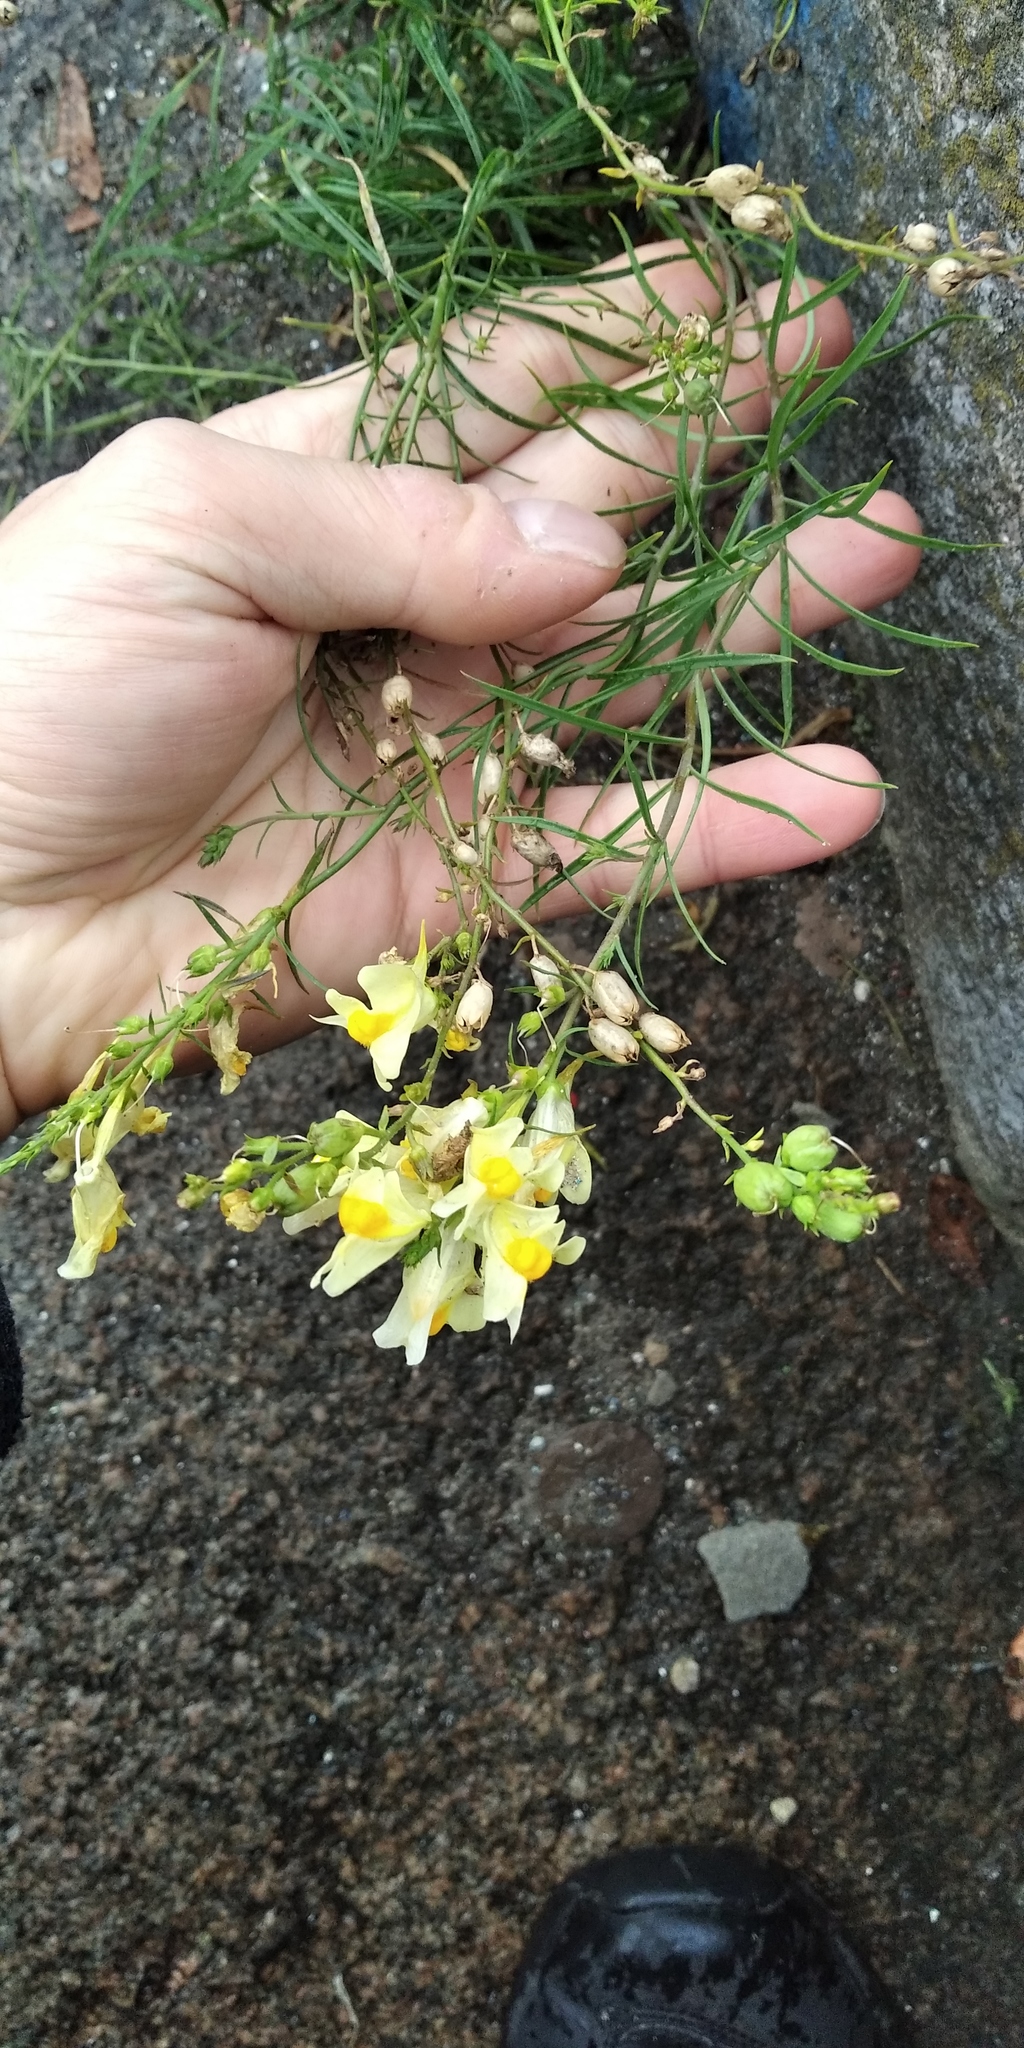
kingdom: Plantae
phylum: Tracheophyta
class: Magnoliopsida
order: Lamiales
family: Plantaginaceae
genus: Linaria
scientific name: Linaria vulgaris
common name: Butter and eggs
